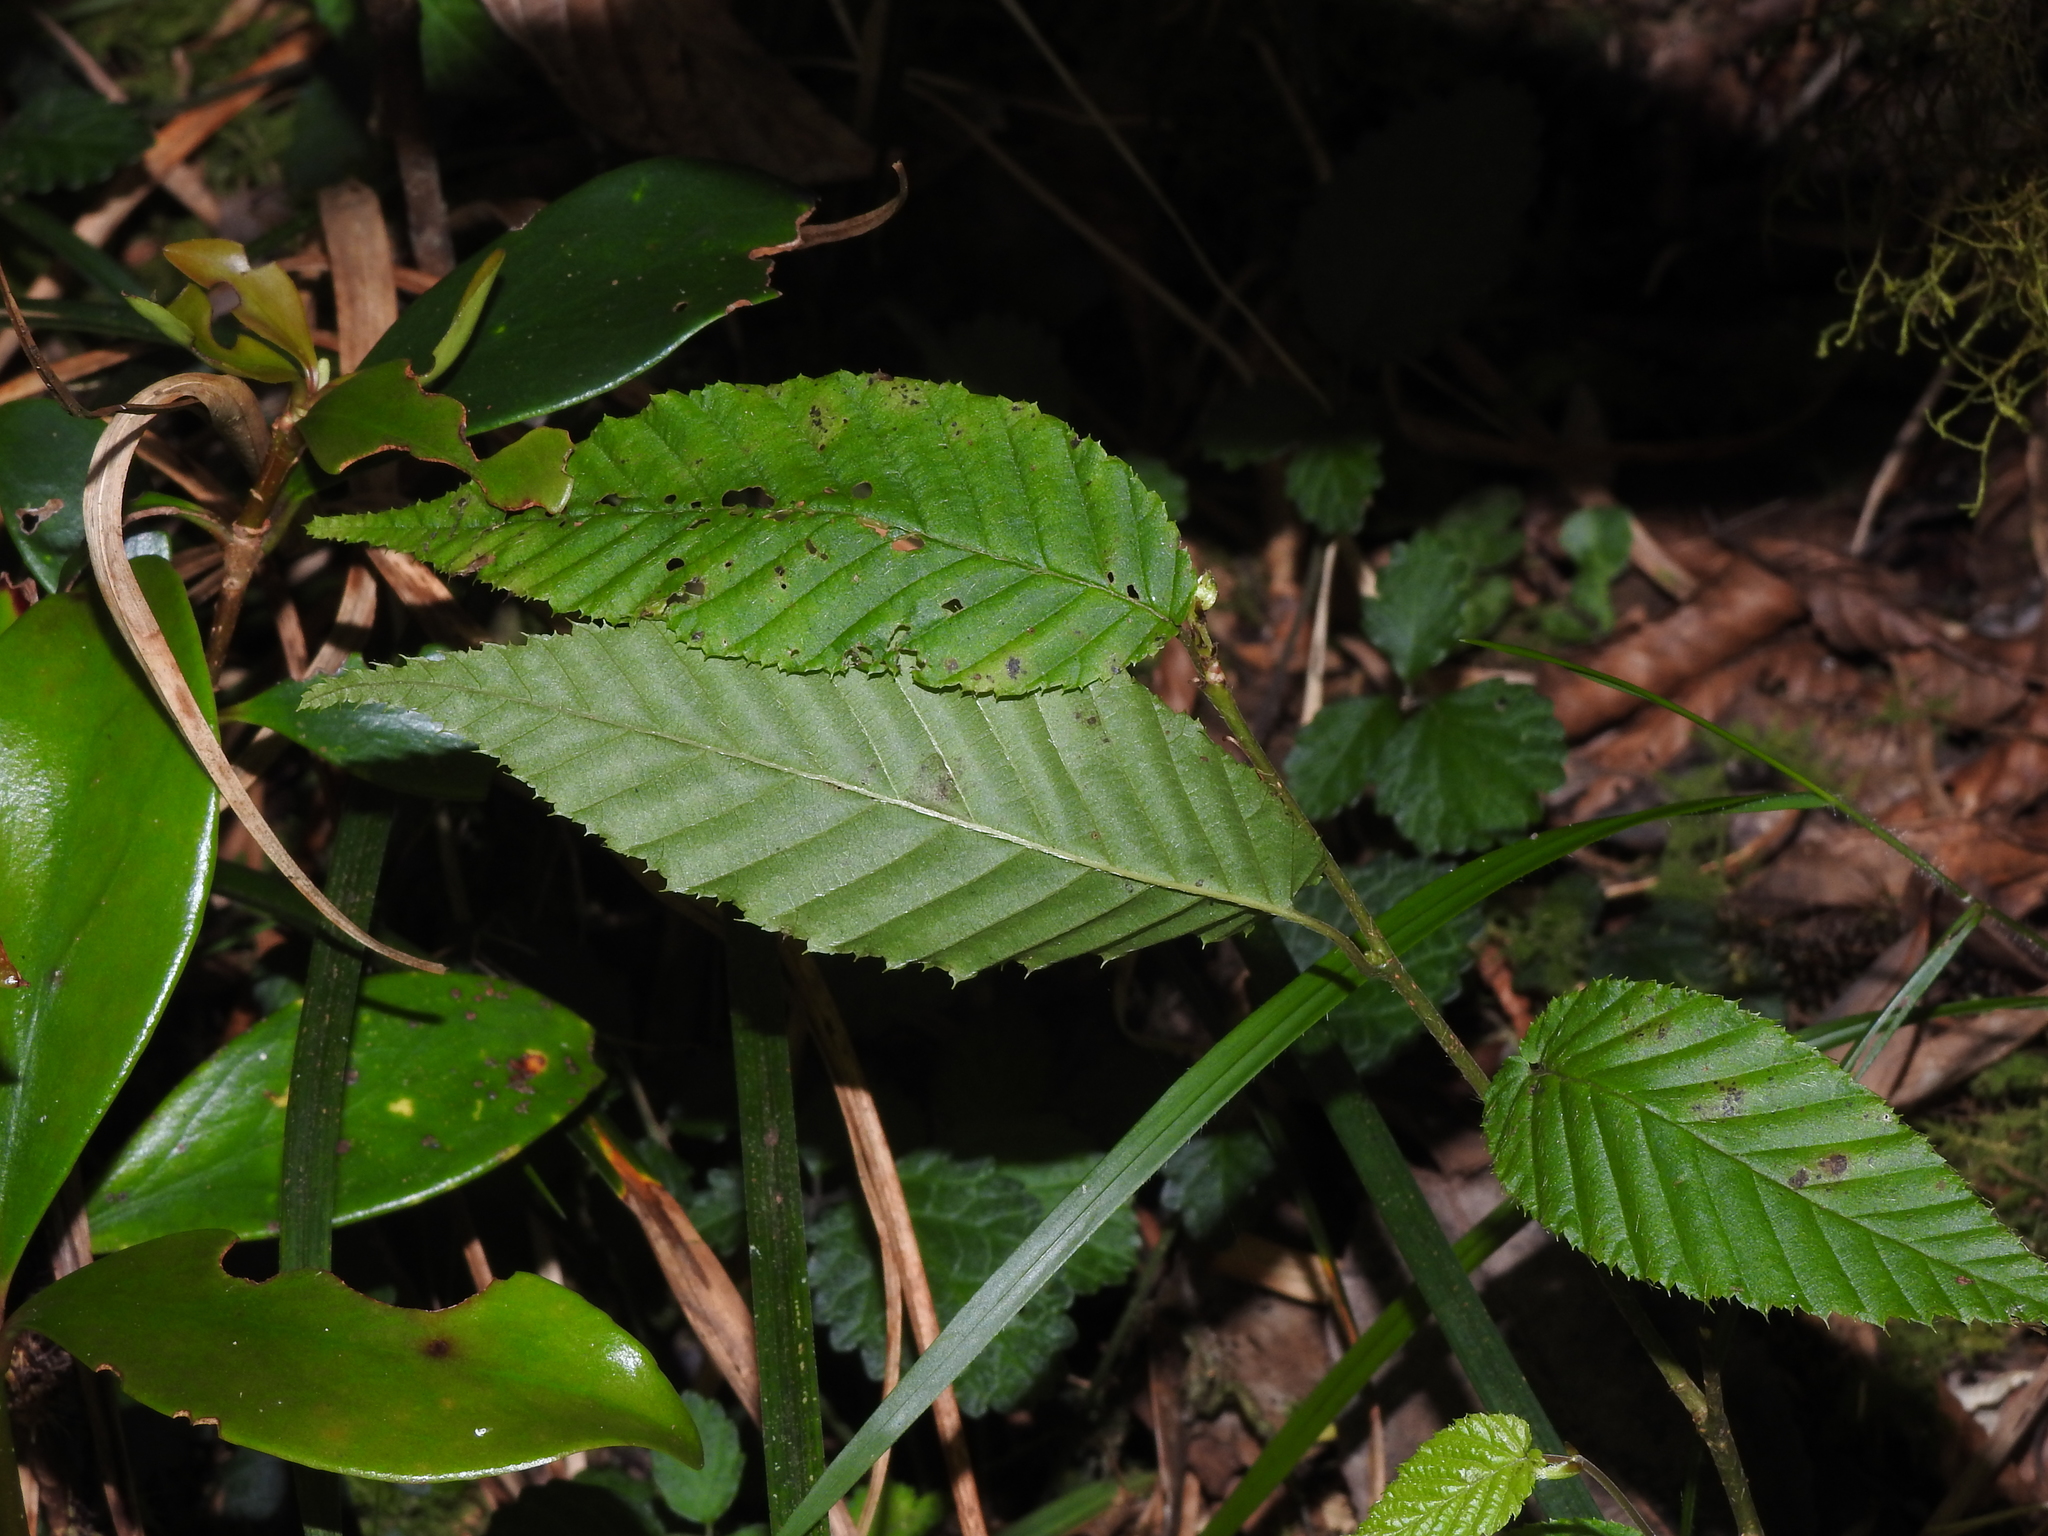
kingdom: Plantae
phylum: Tracheophyta
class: Magnoliopsida
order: Fagales
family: Betulaceae
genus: Carpinus
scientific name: Carpinus rankanensis
